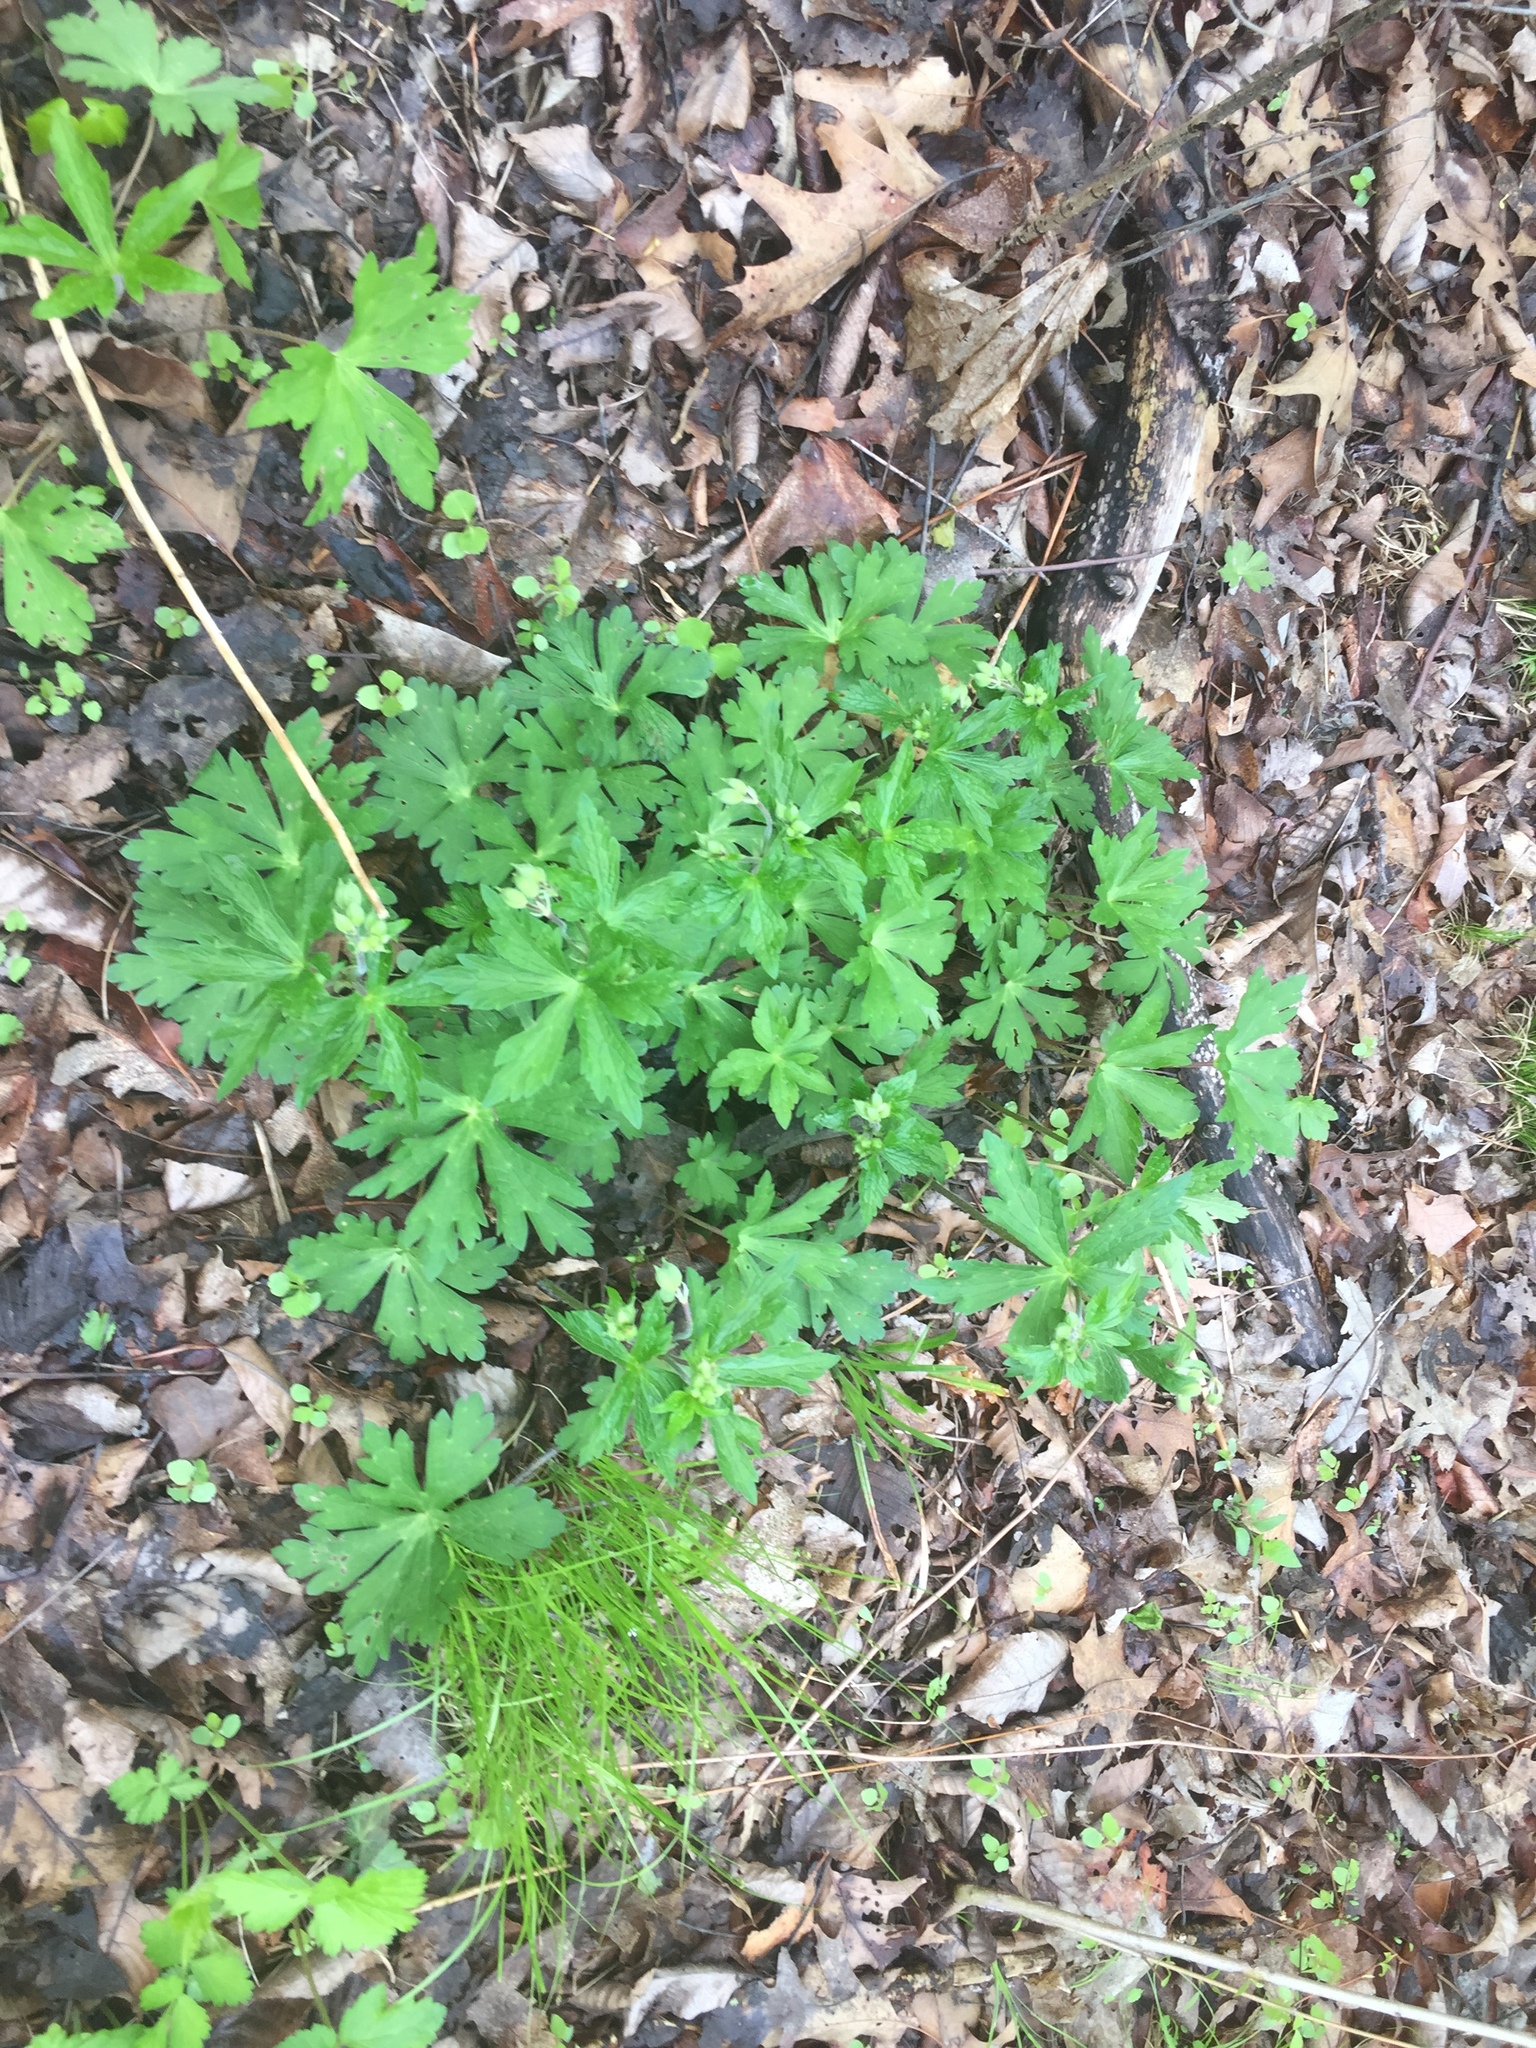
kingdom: Plantae
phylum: Tracheophyta
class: Magnoliopsida
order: Geraniales
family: Geraniaceae
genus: Geranium
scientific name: Geranium maculatum
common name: Spotted geranium
